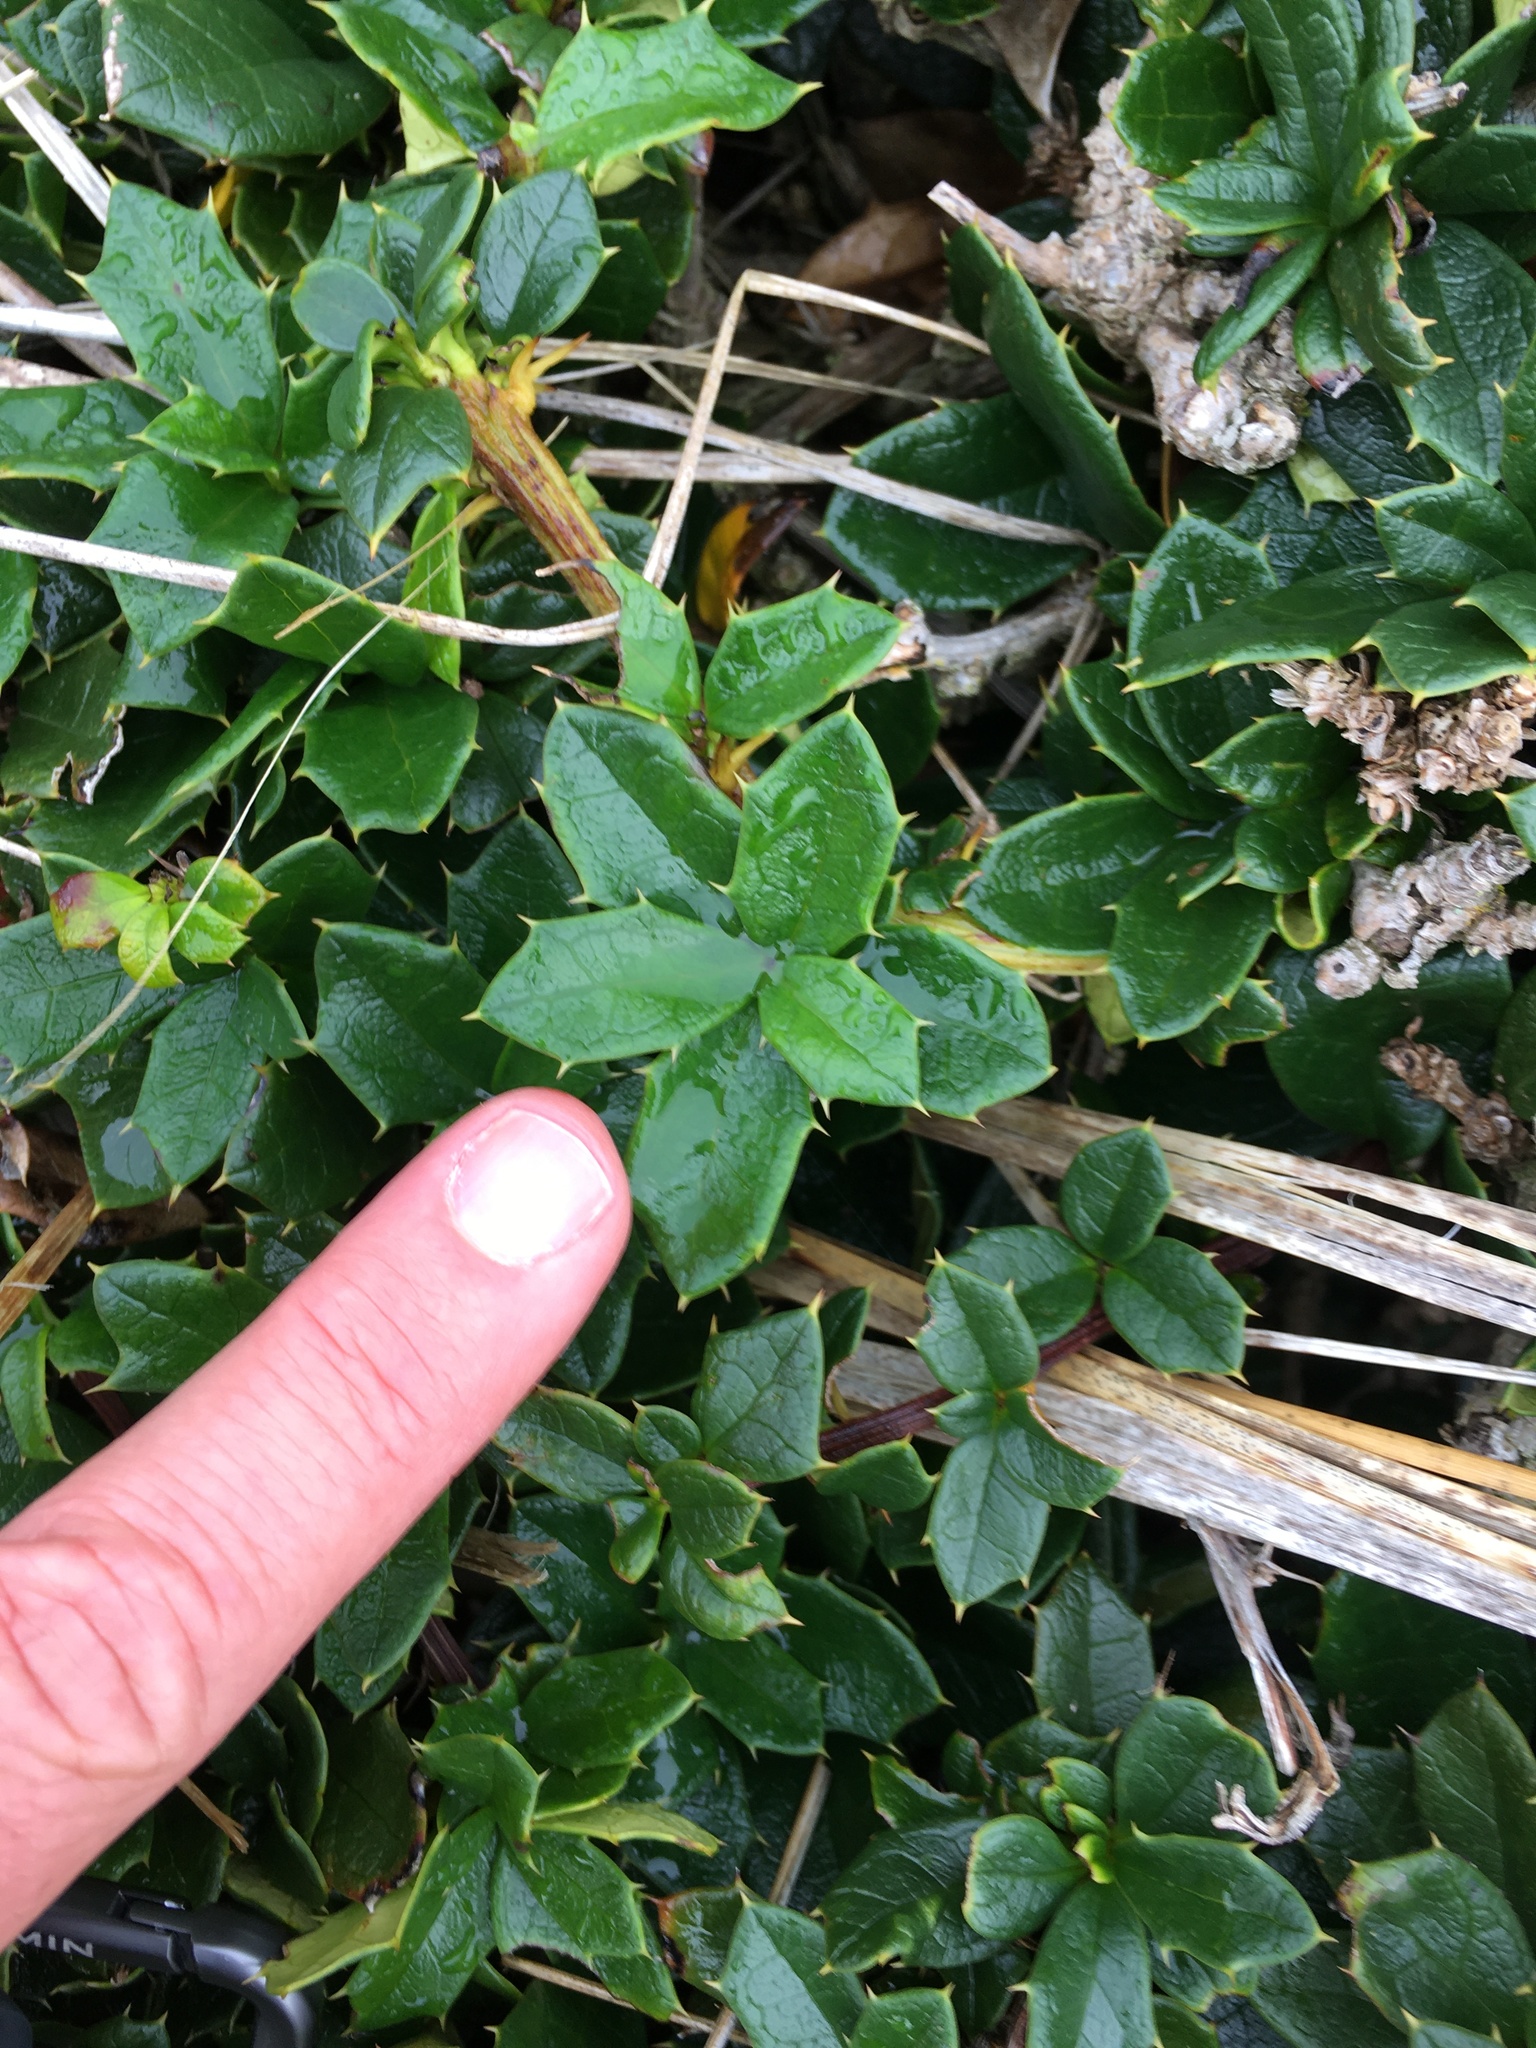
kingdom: Plantae
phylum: Tracheophyta
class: Magnoliopsida
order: Ranunculales
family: Berberidaceae
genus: Berberis
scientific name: Berberis ilicifolia
